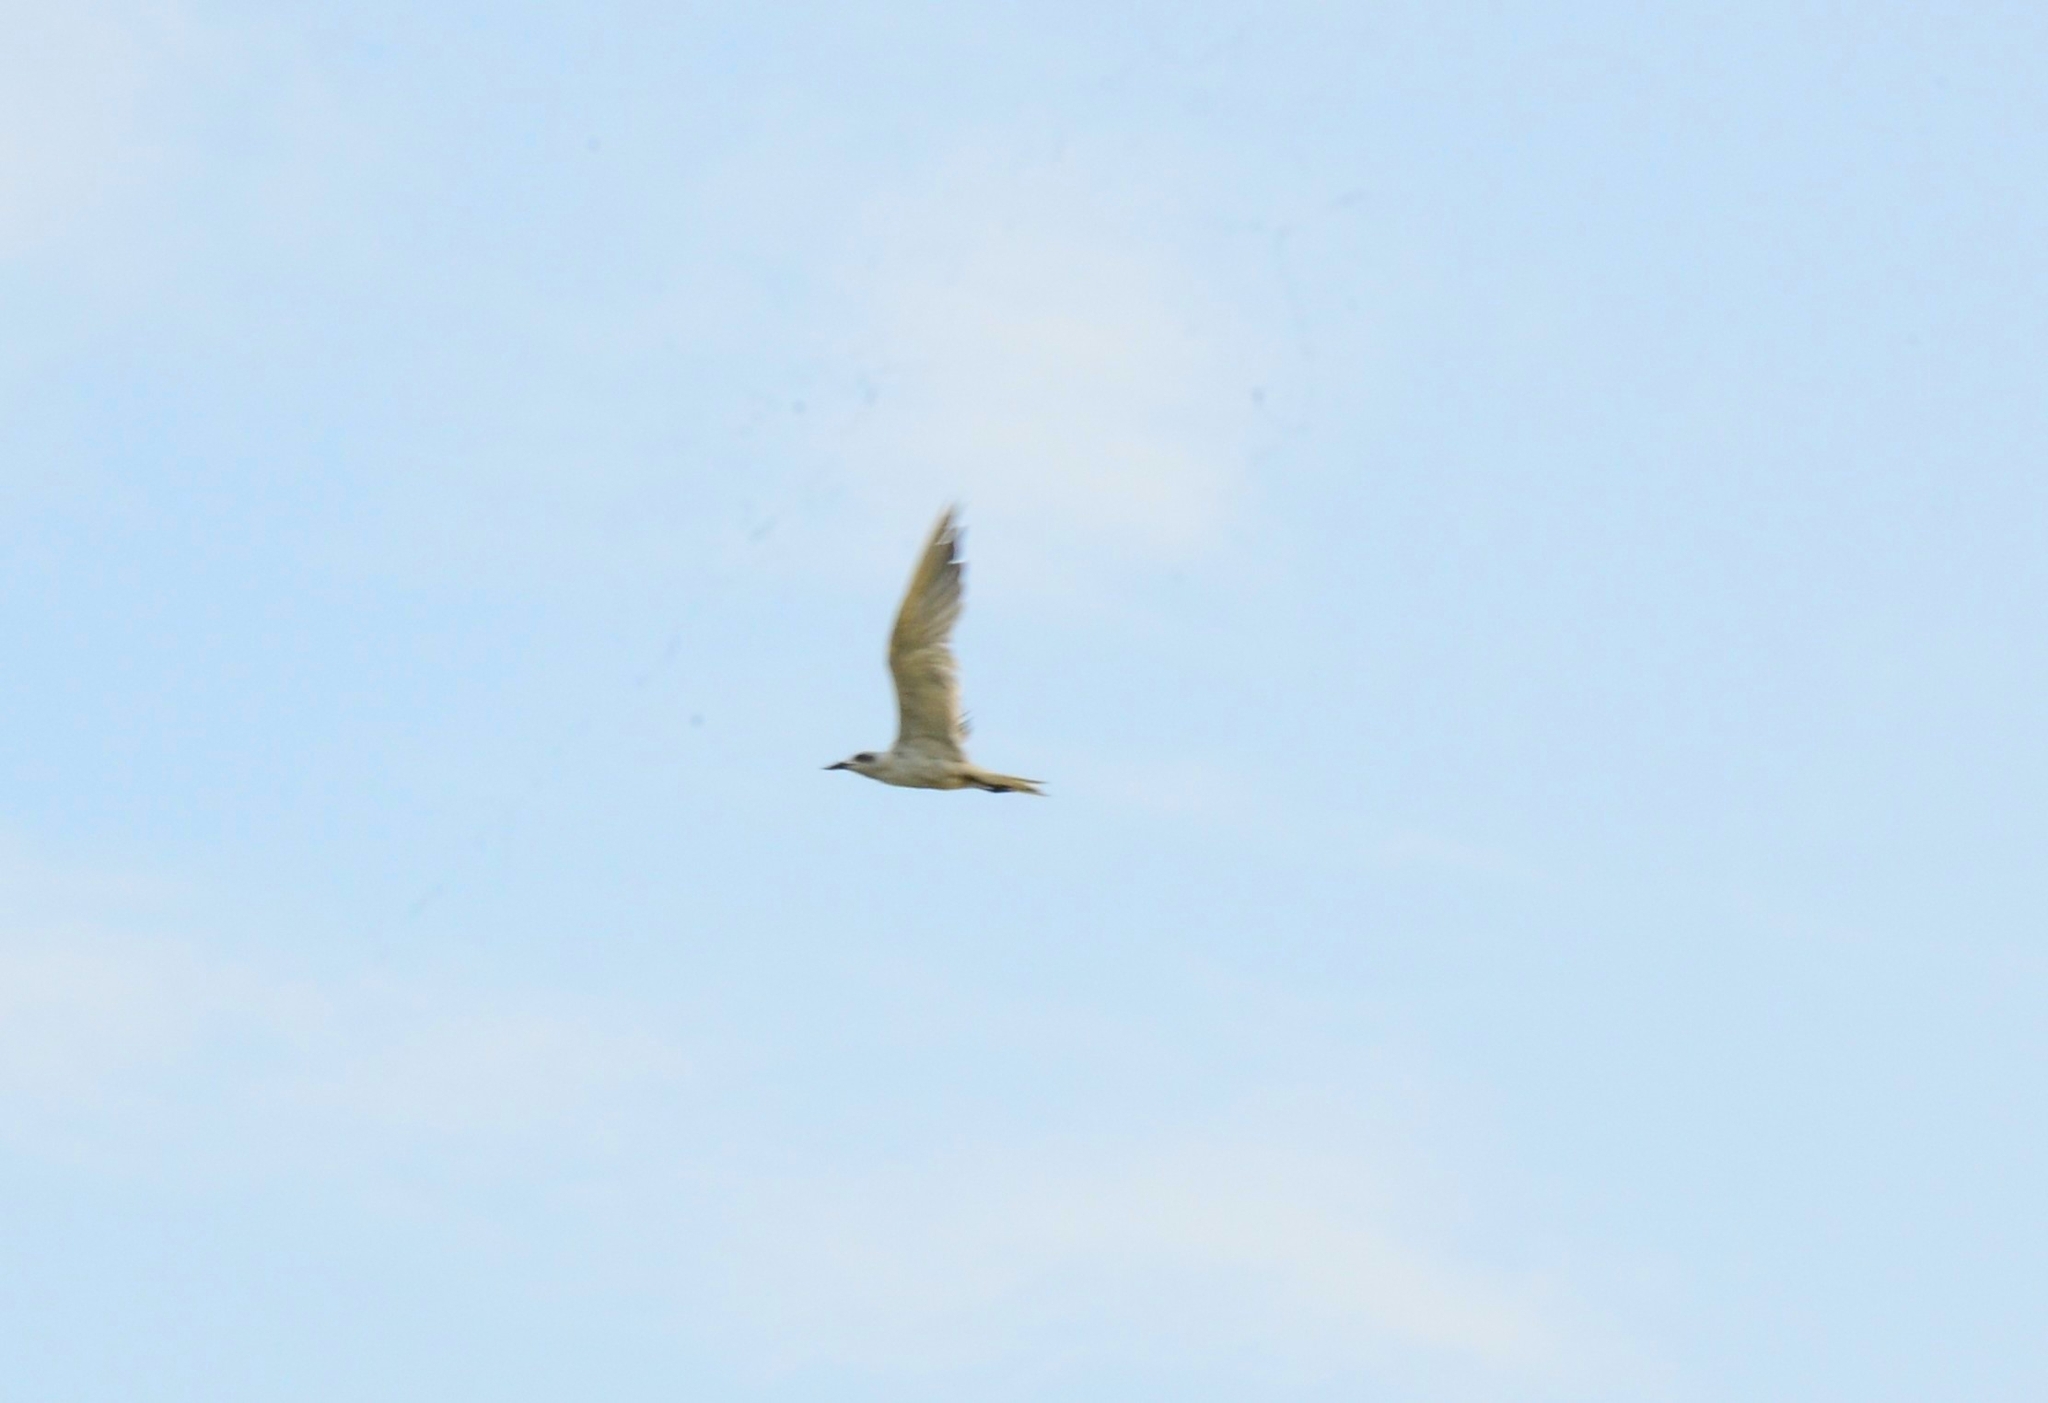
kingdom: Animalia
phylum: Chordata
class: Aves
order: Charadriiformes
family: Laridae
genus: Gelochelidon
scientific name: Gelochelidon nilotica
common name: Gull-billed tern
